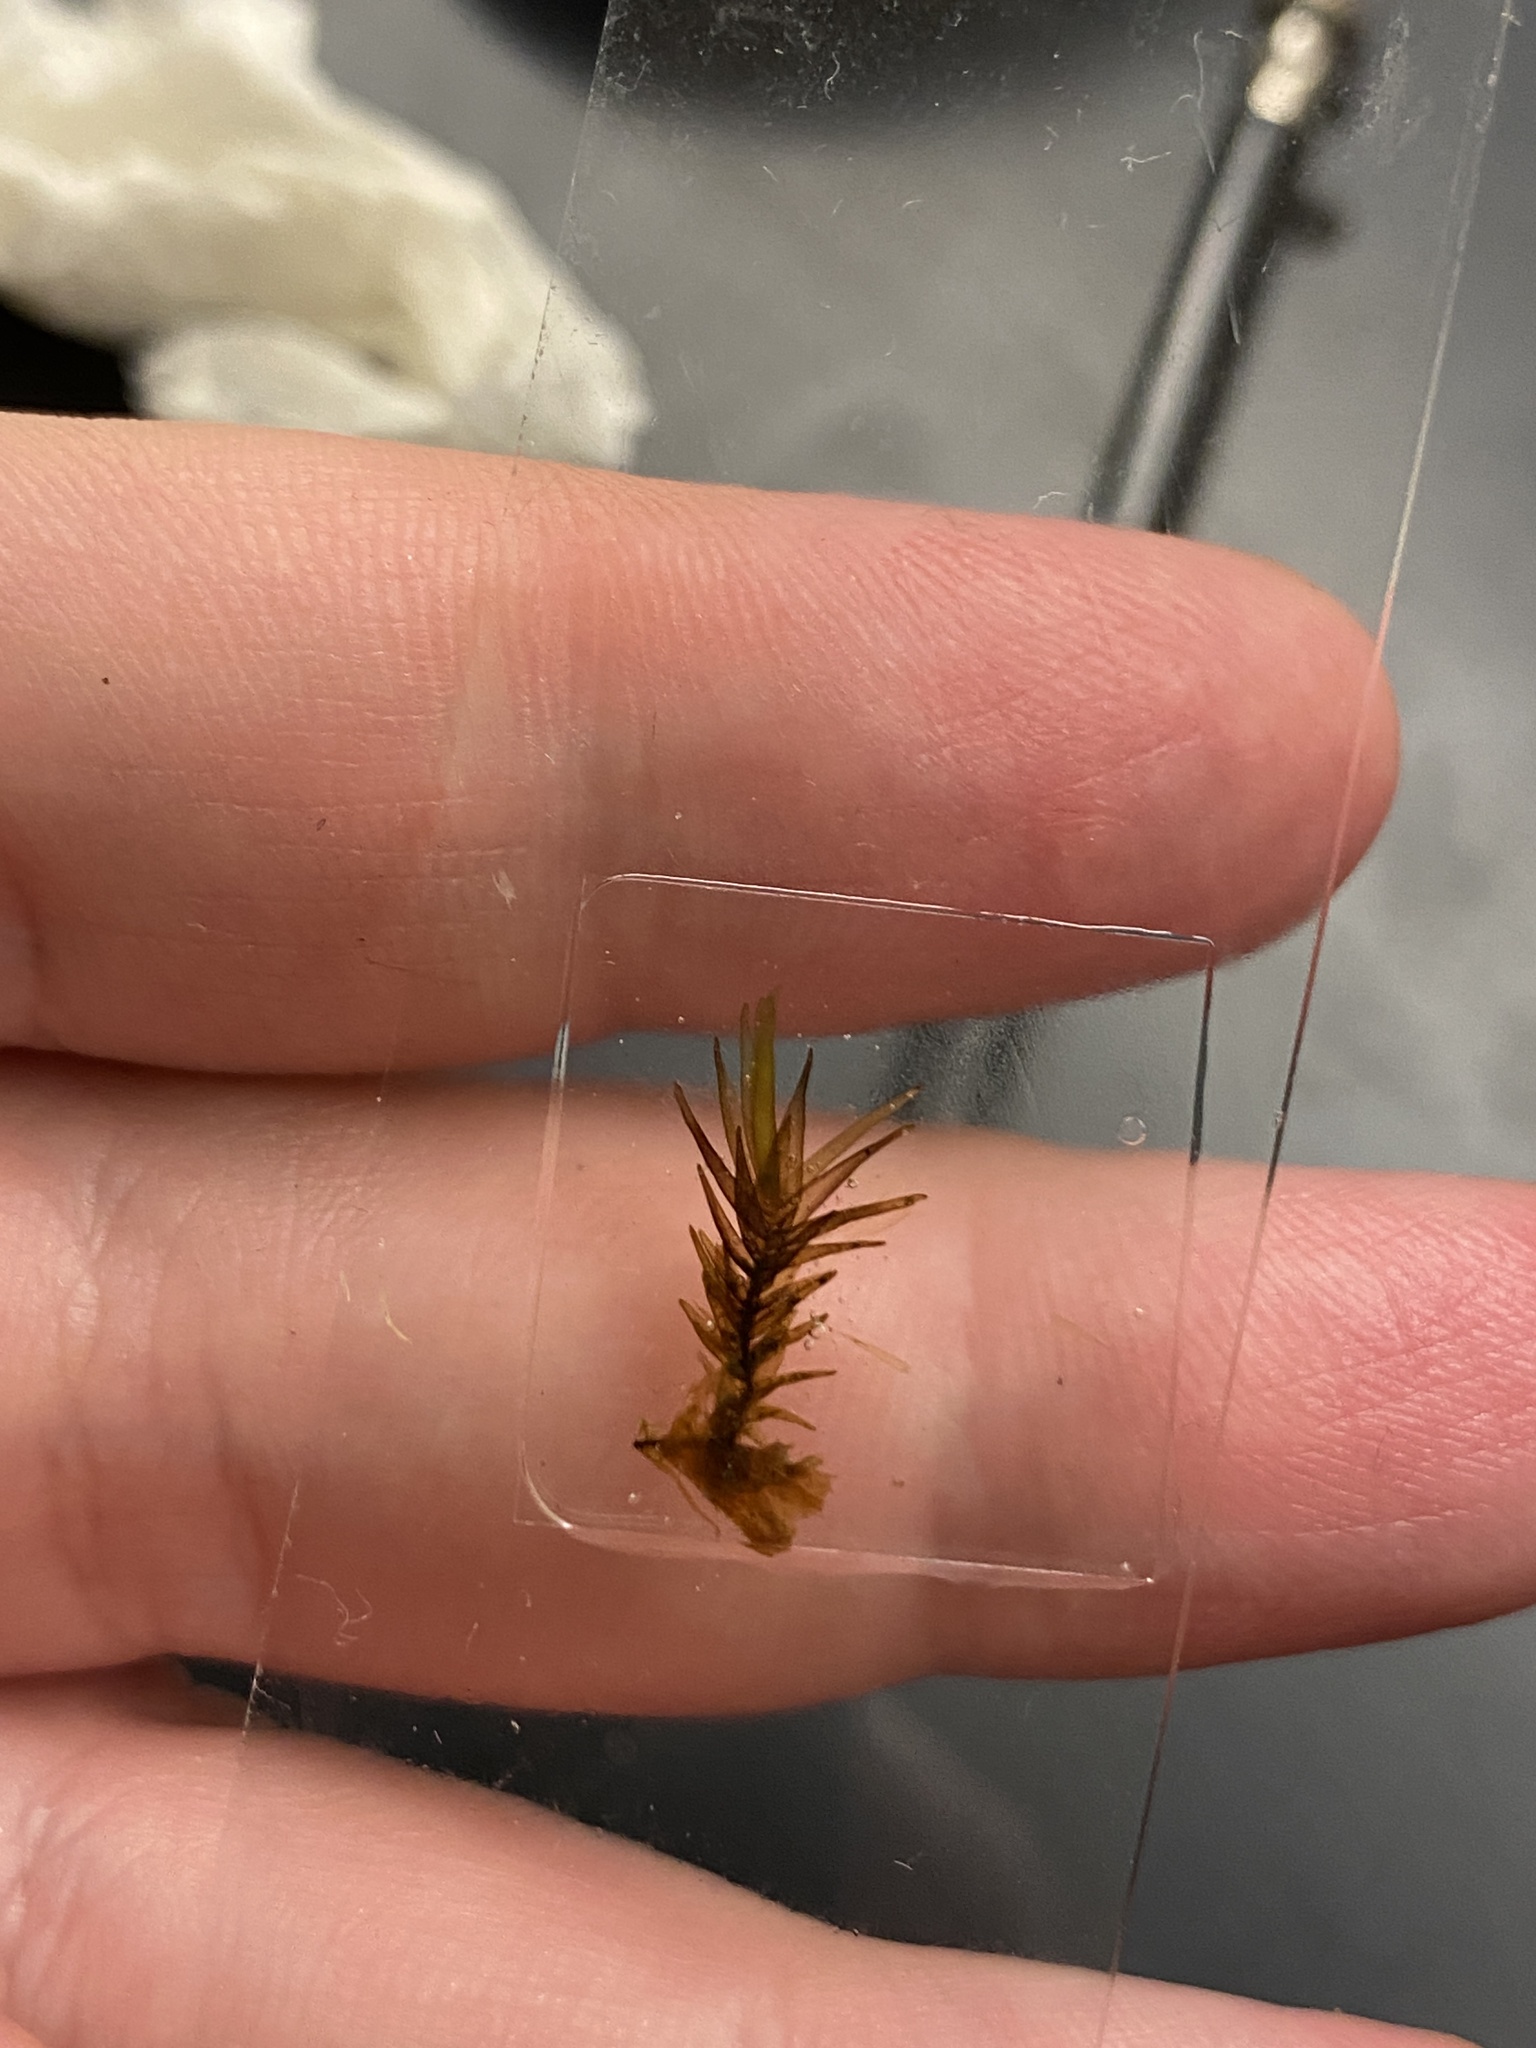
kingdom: Plantae
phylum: Bryophyta
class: Sphagnopsida
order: Sphagnales
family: Sphagnaceae
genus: Sphagnum
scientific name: Sphagnum macrophyllum
